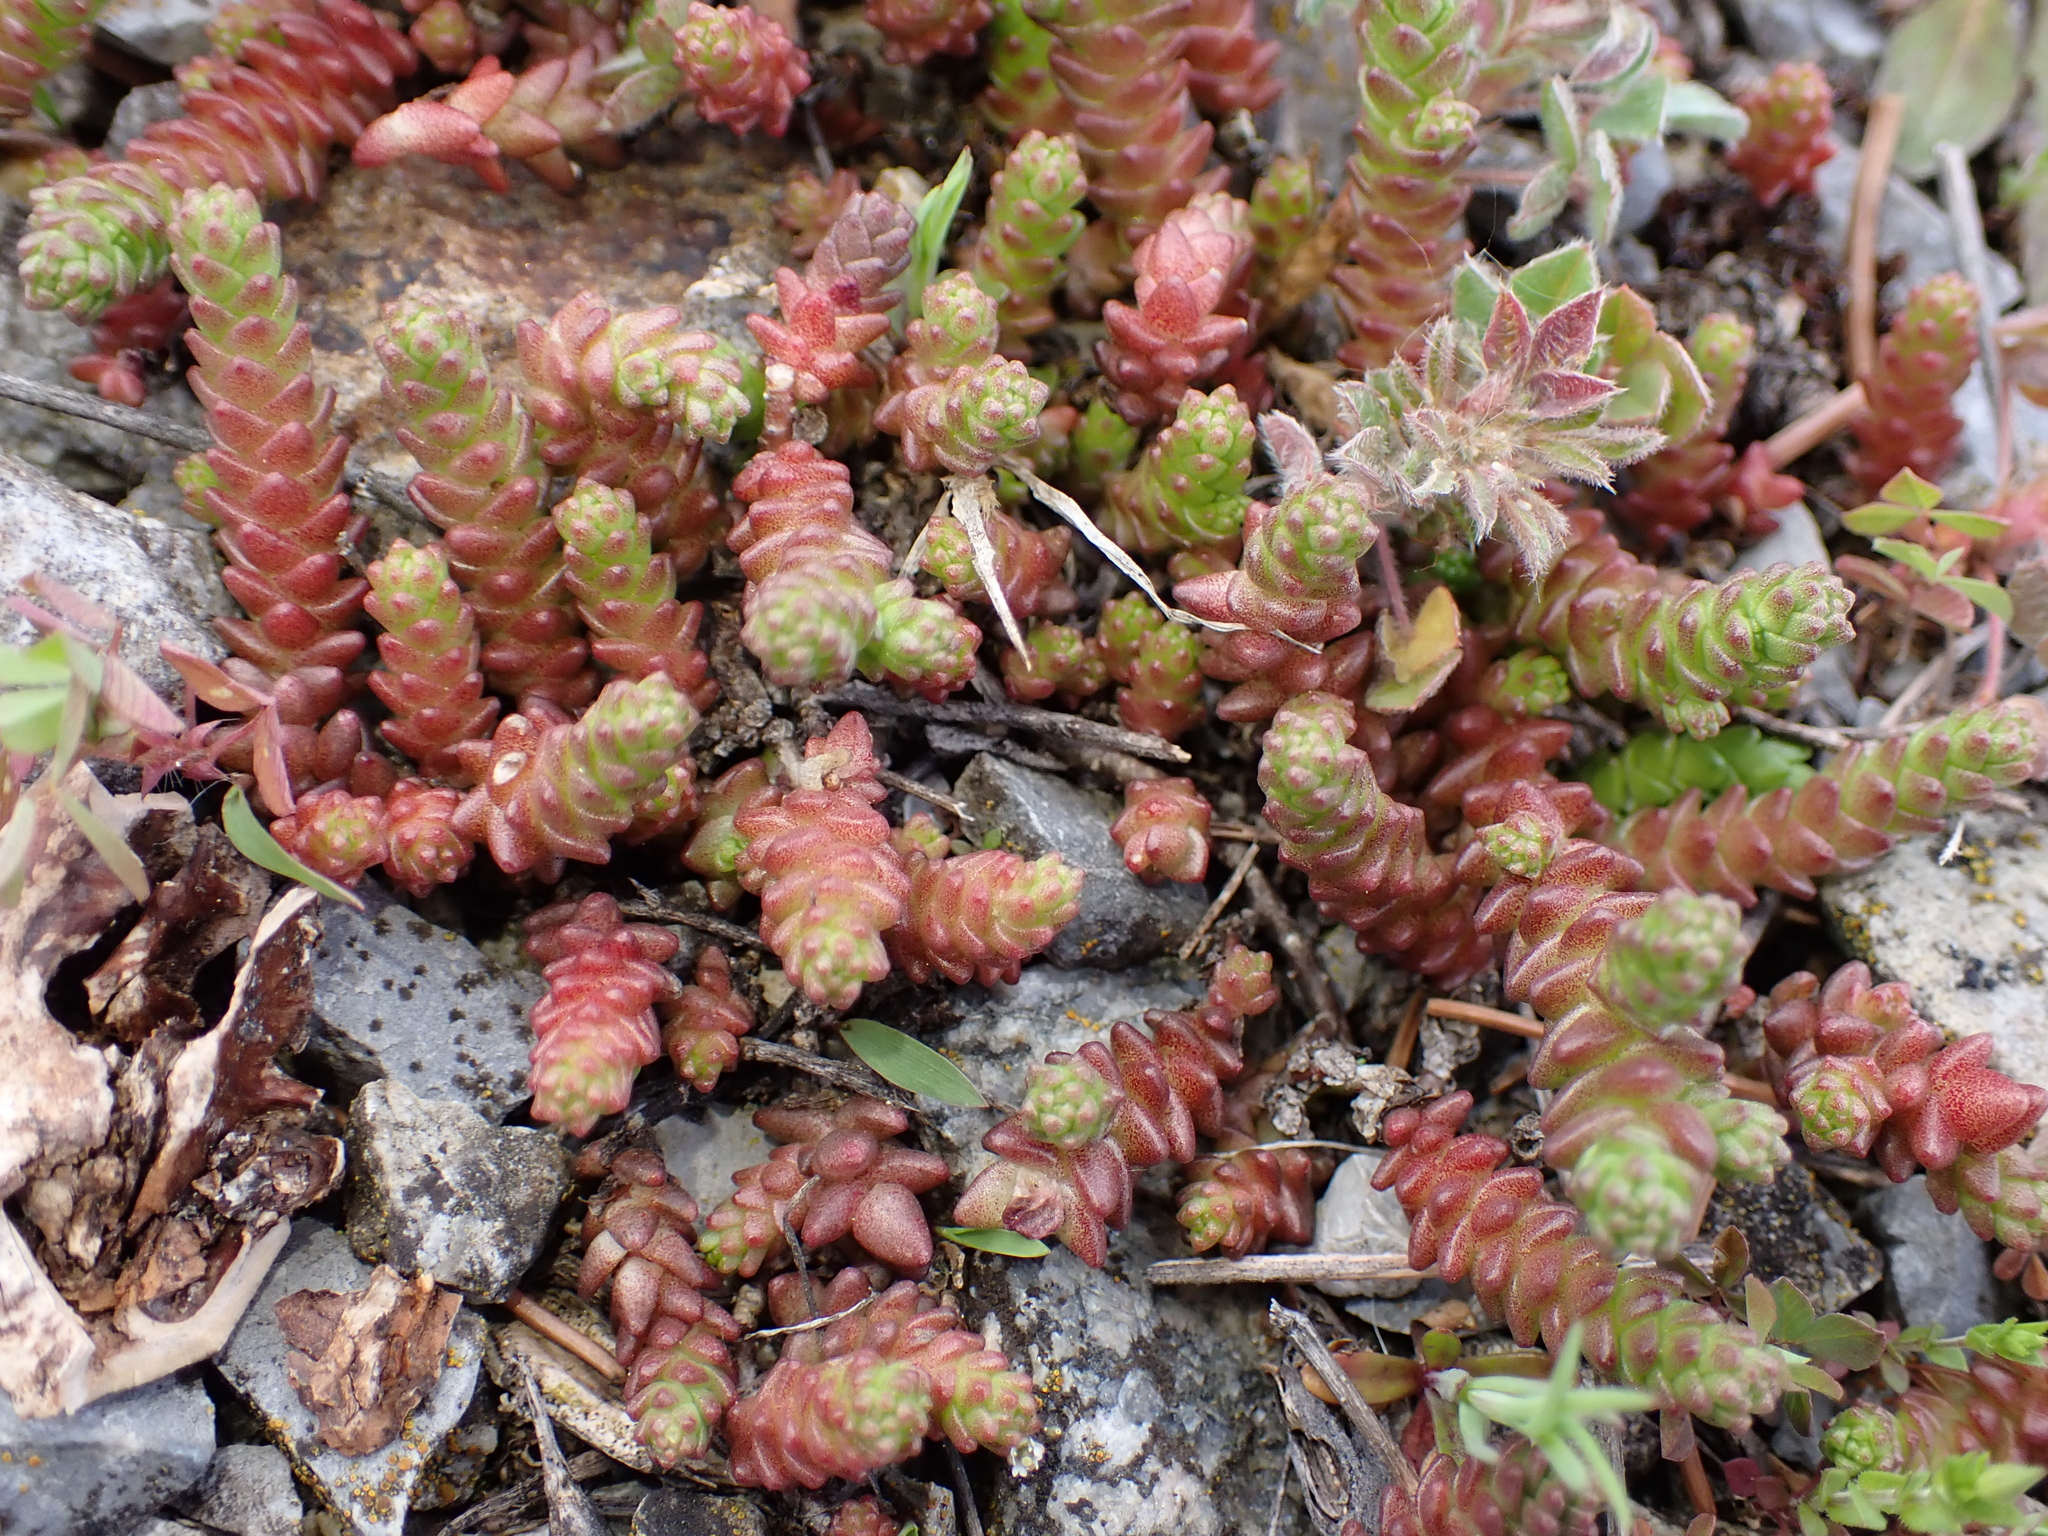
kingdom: Plantae
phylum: Tracheophyta
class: Magnoliopsida
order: Saxifragales
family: Crassulaceae
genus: Sedum
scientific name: Sedum acre
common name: Biting stonecrop
